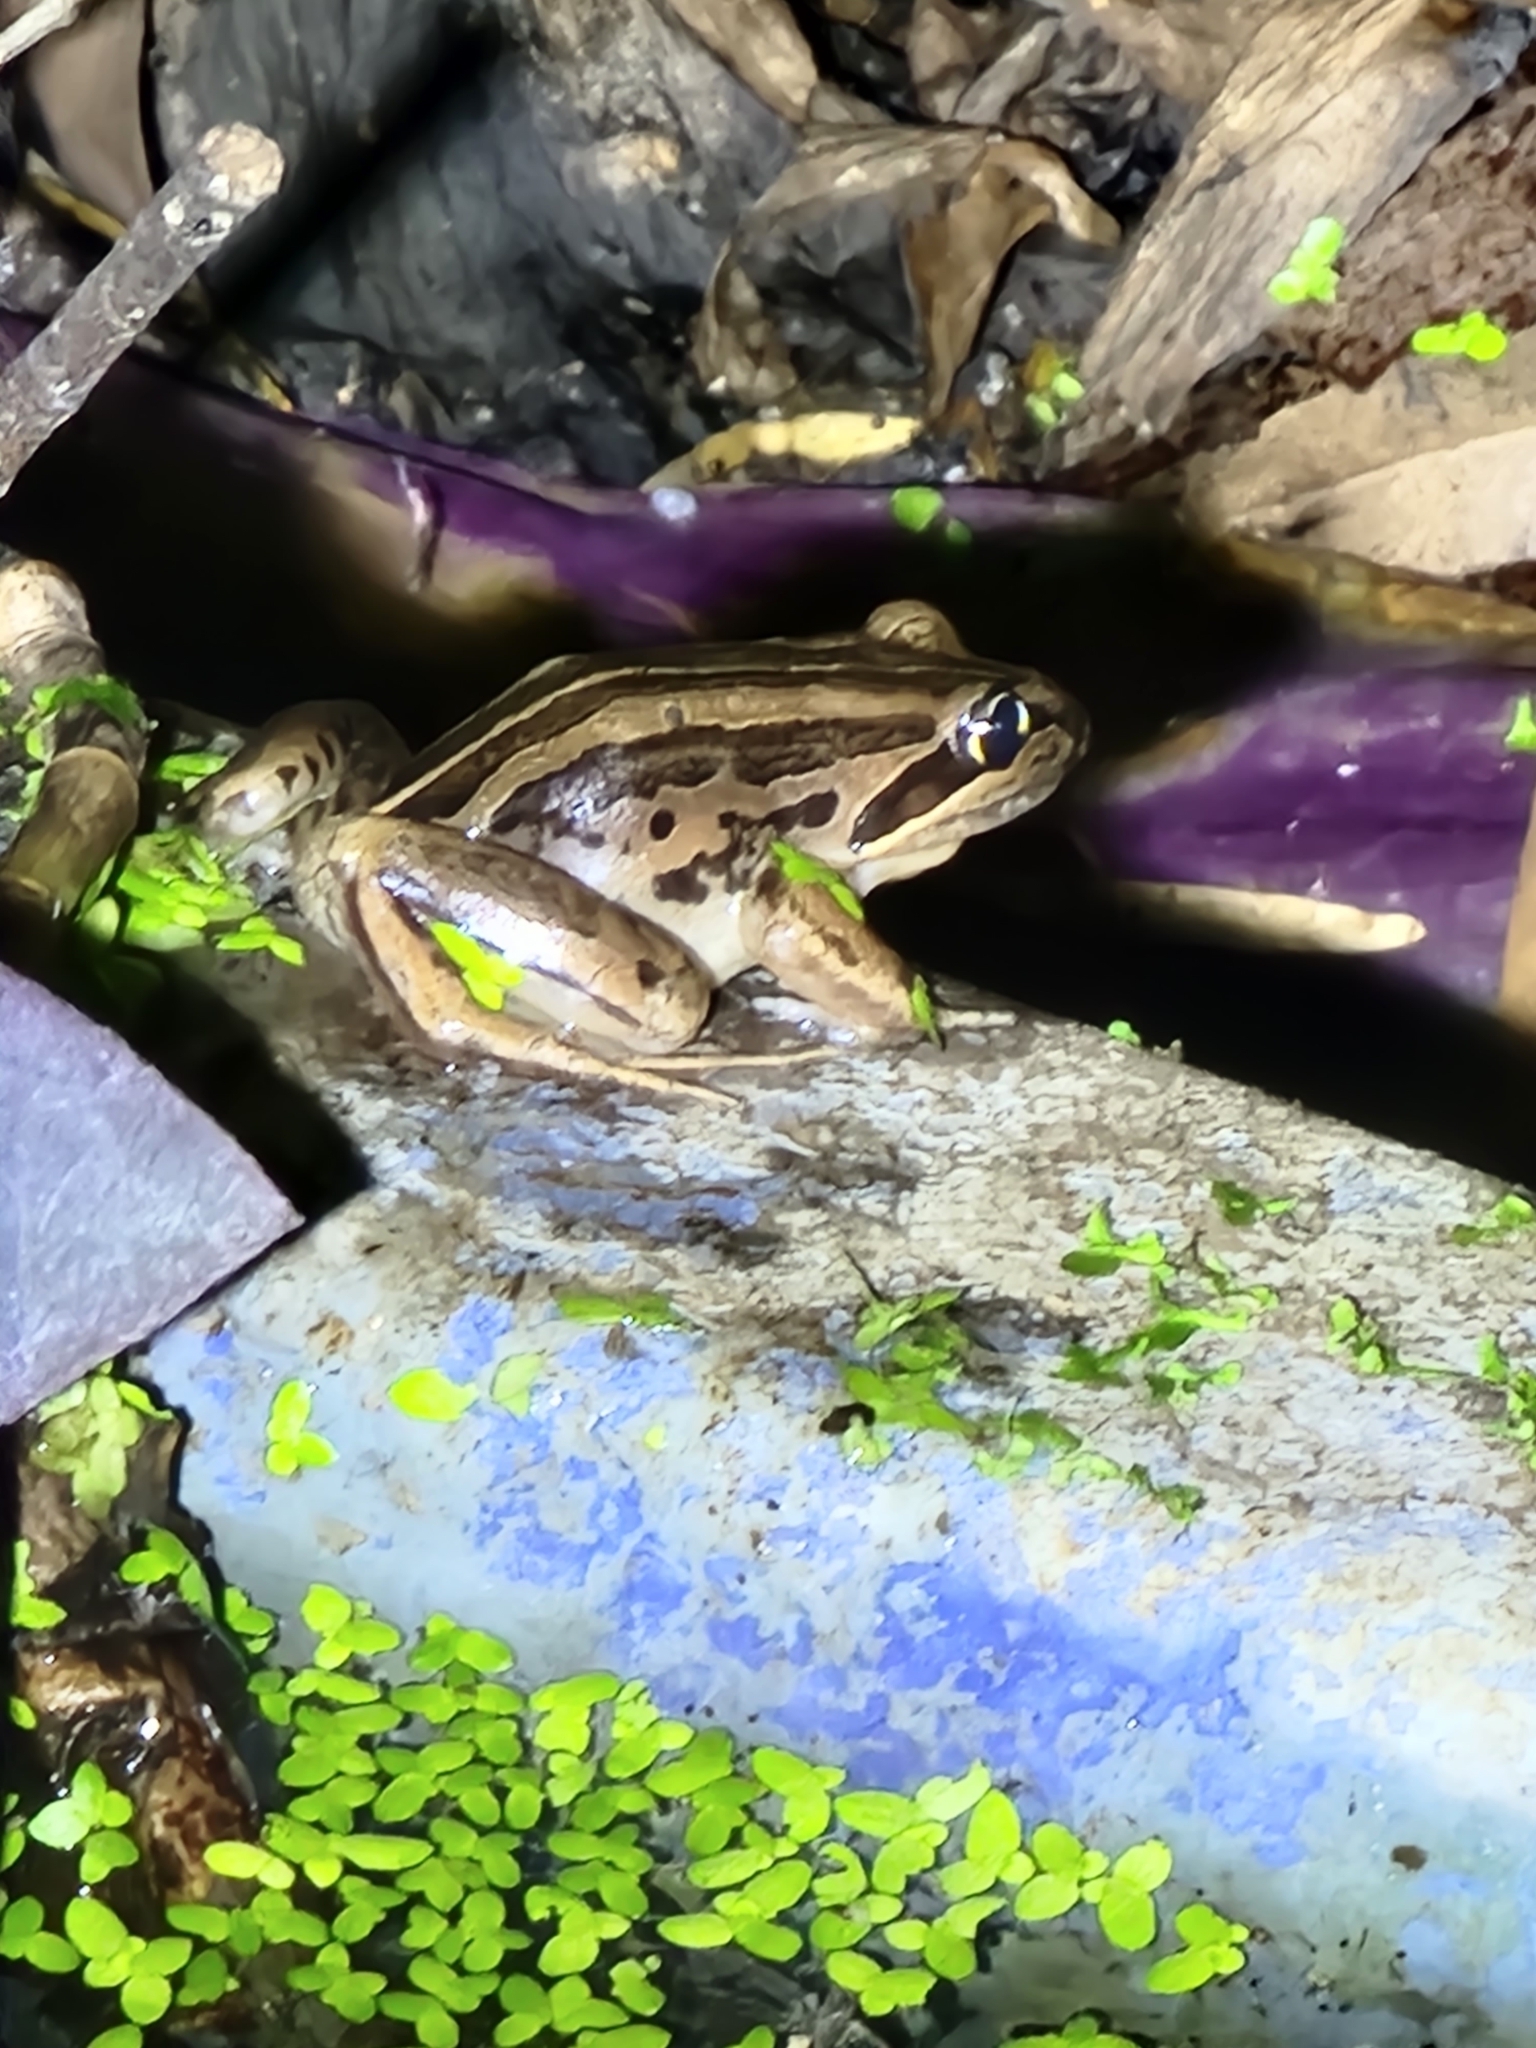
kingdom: Animalia
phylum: Chordata
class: Amphibia
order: Anura
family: Limnodynastidae
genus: Limnodynastes
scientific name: Limnodynastes peronii
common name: Brown frog
